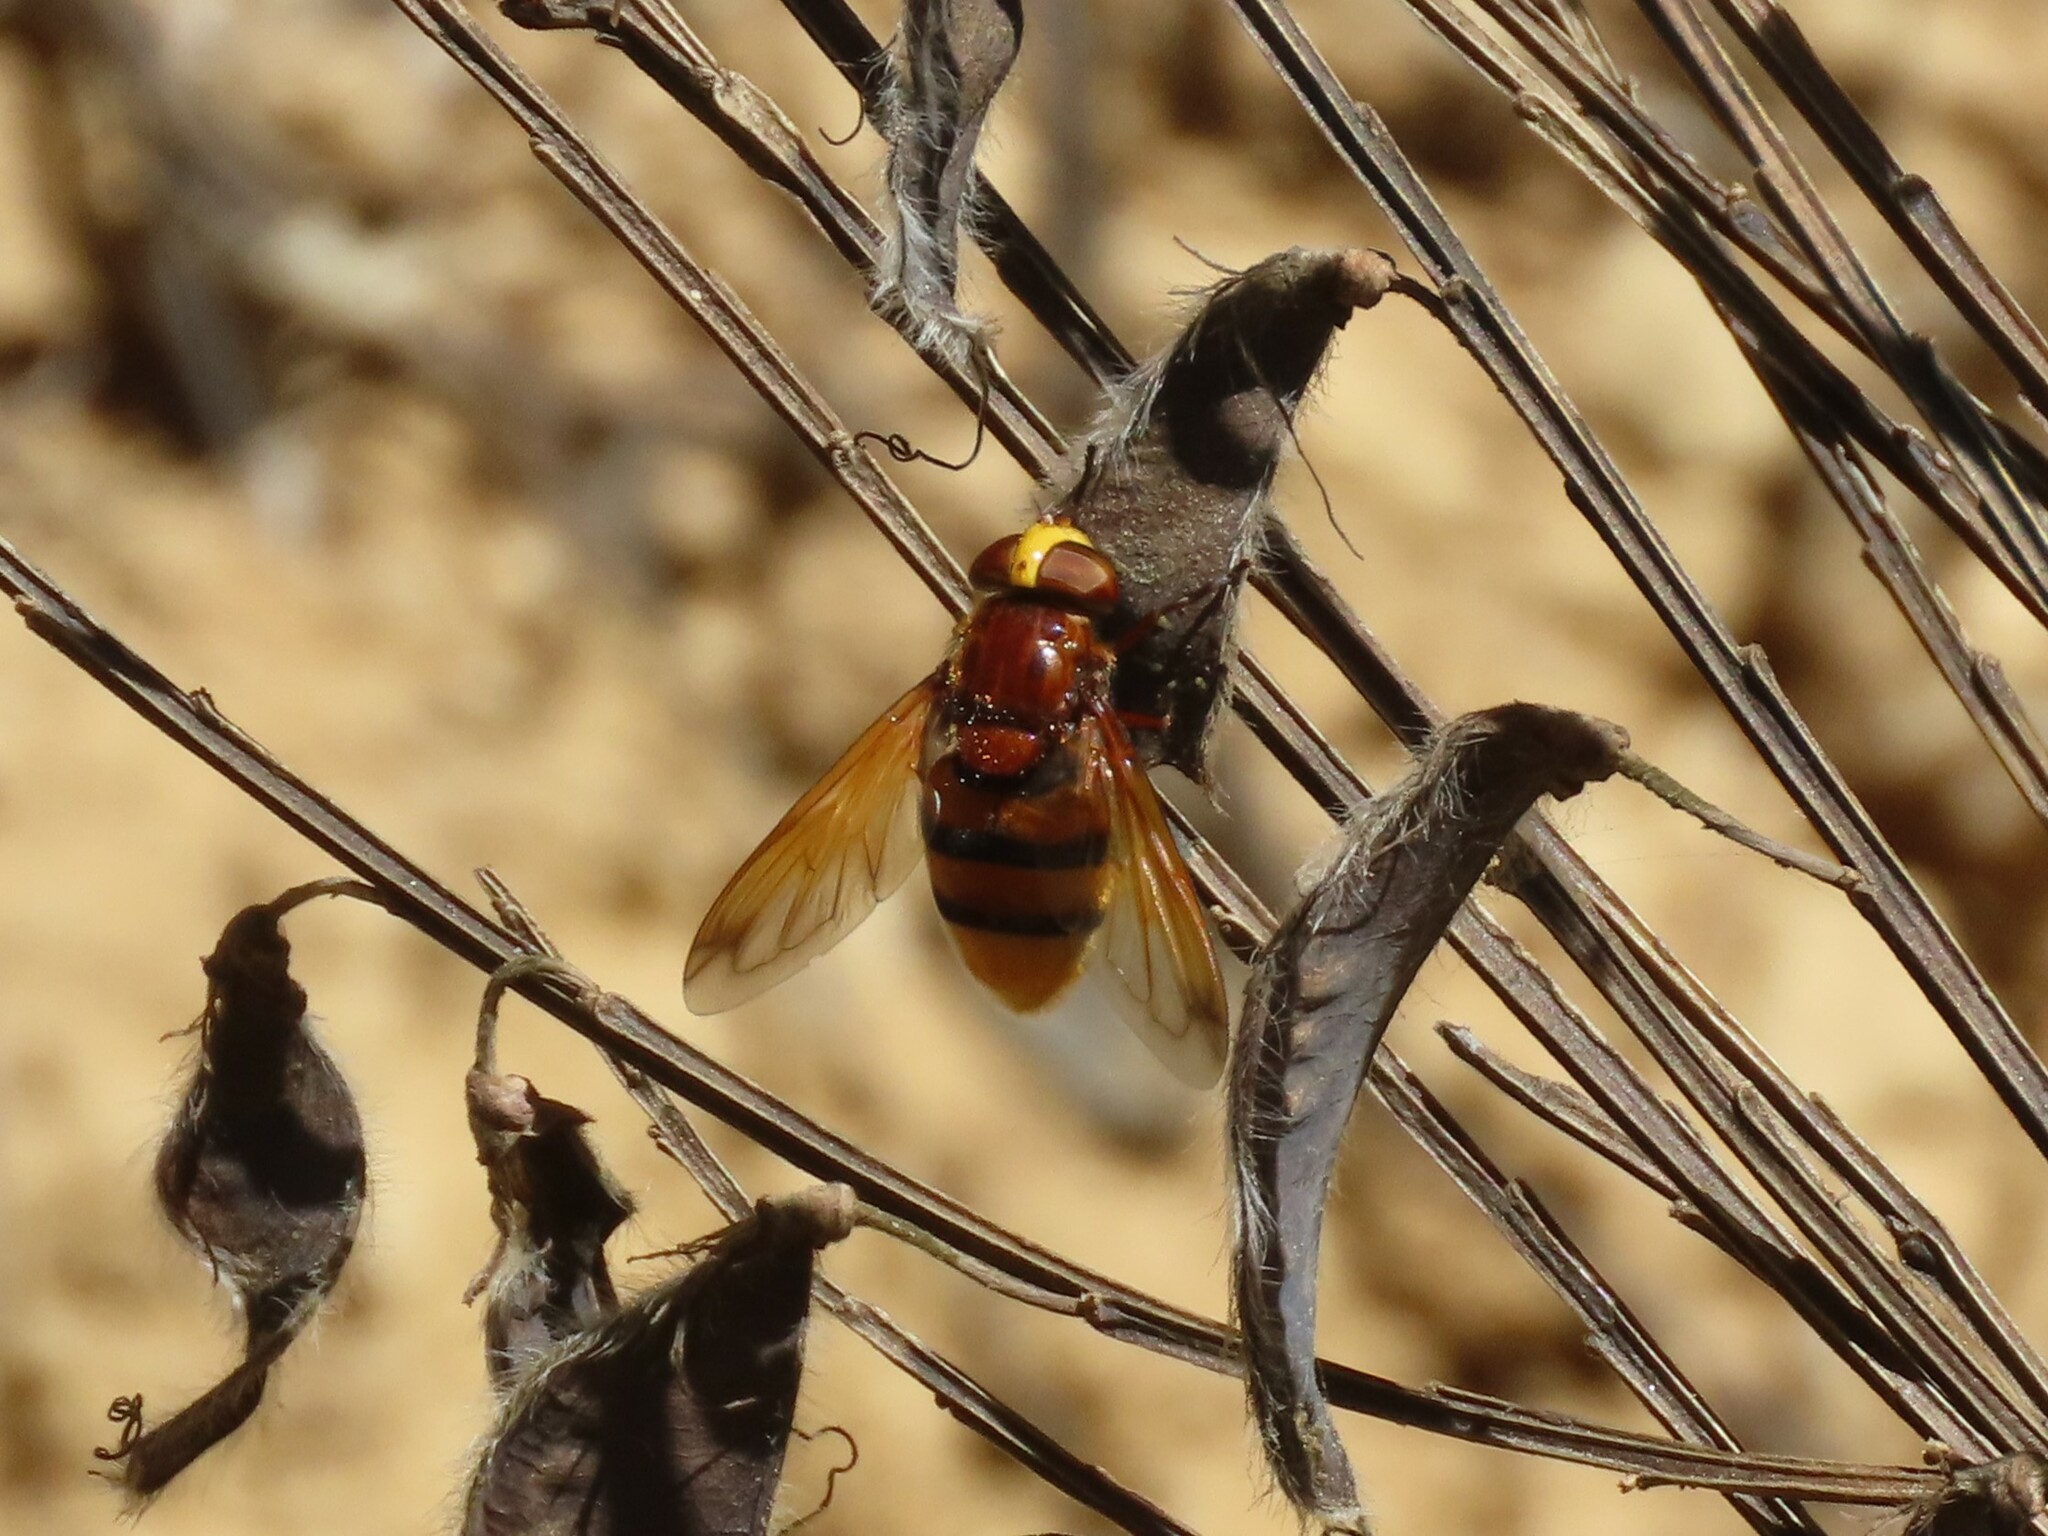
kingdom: Animalia
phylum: Arthropoda
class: Insecta
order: Diptera
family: Syrphidae
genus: Volucella
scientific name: Volucella zonaria
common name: Hornet hoverfly
